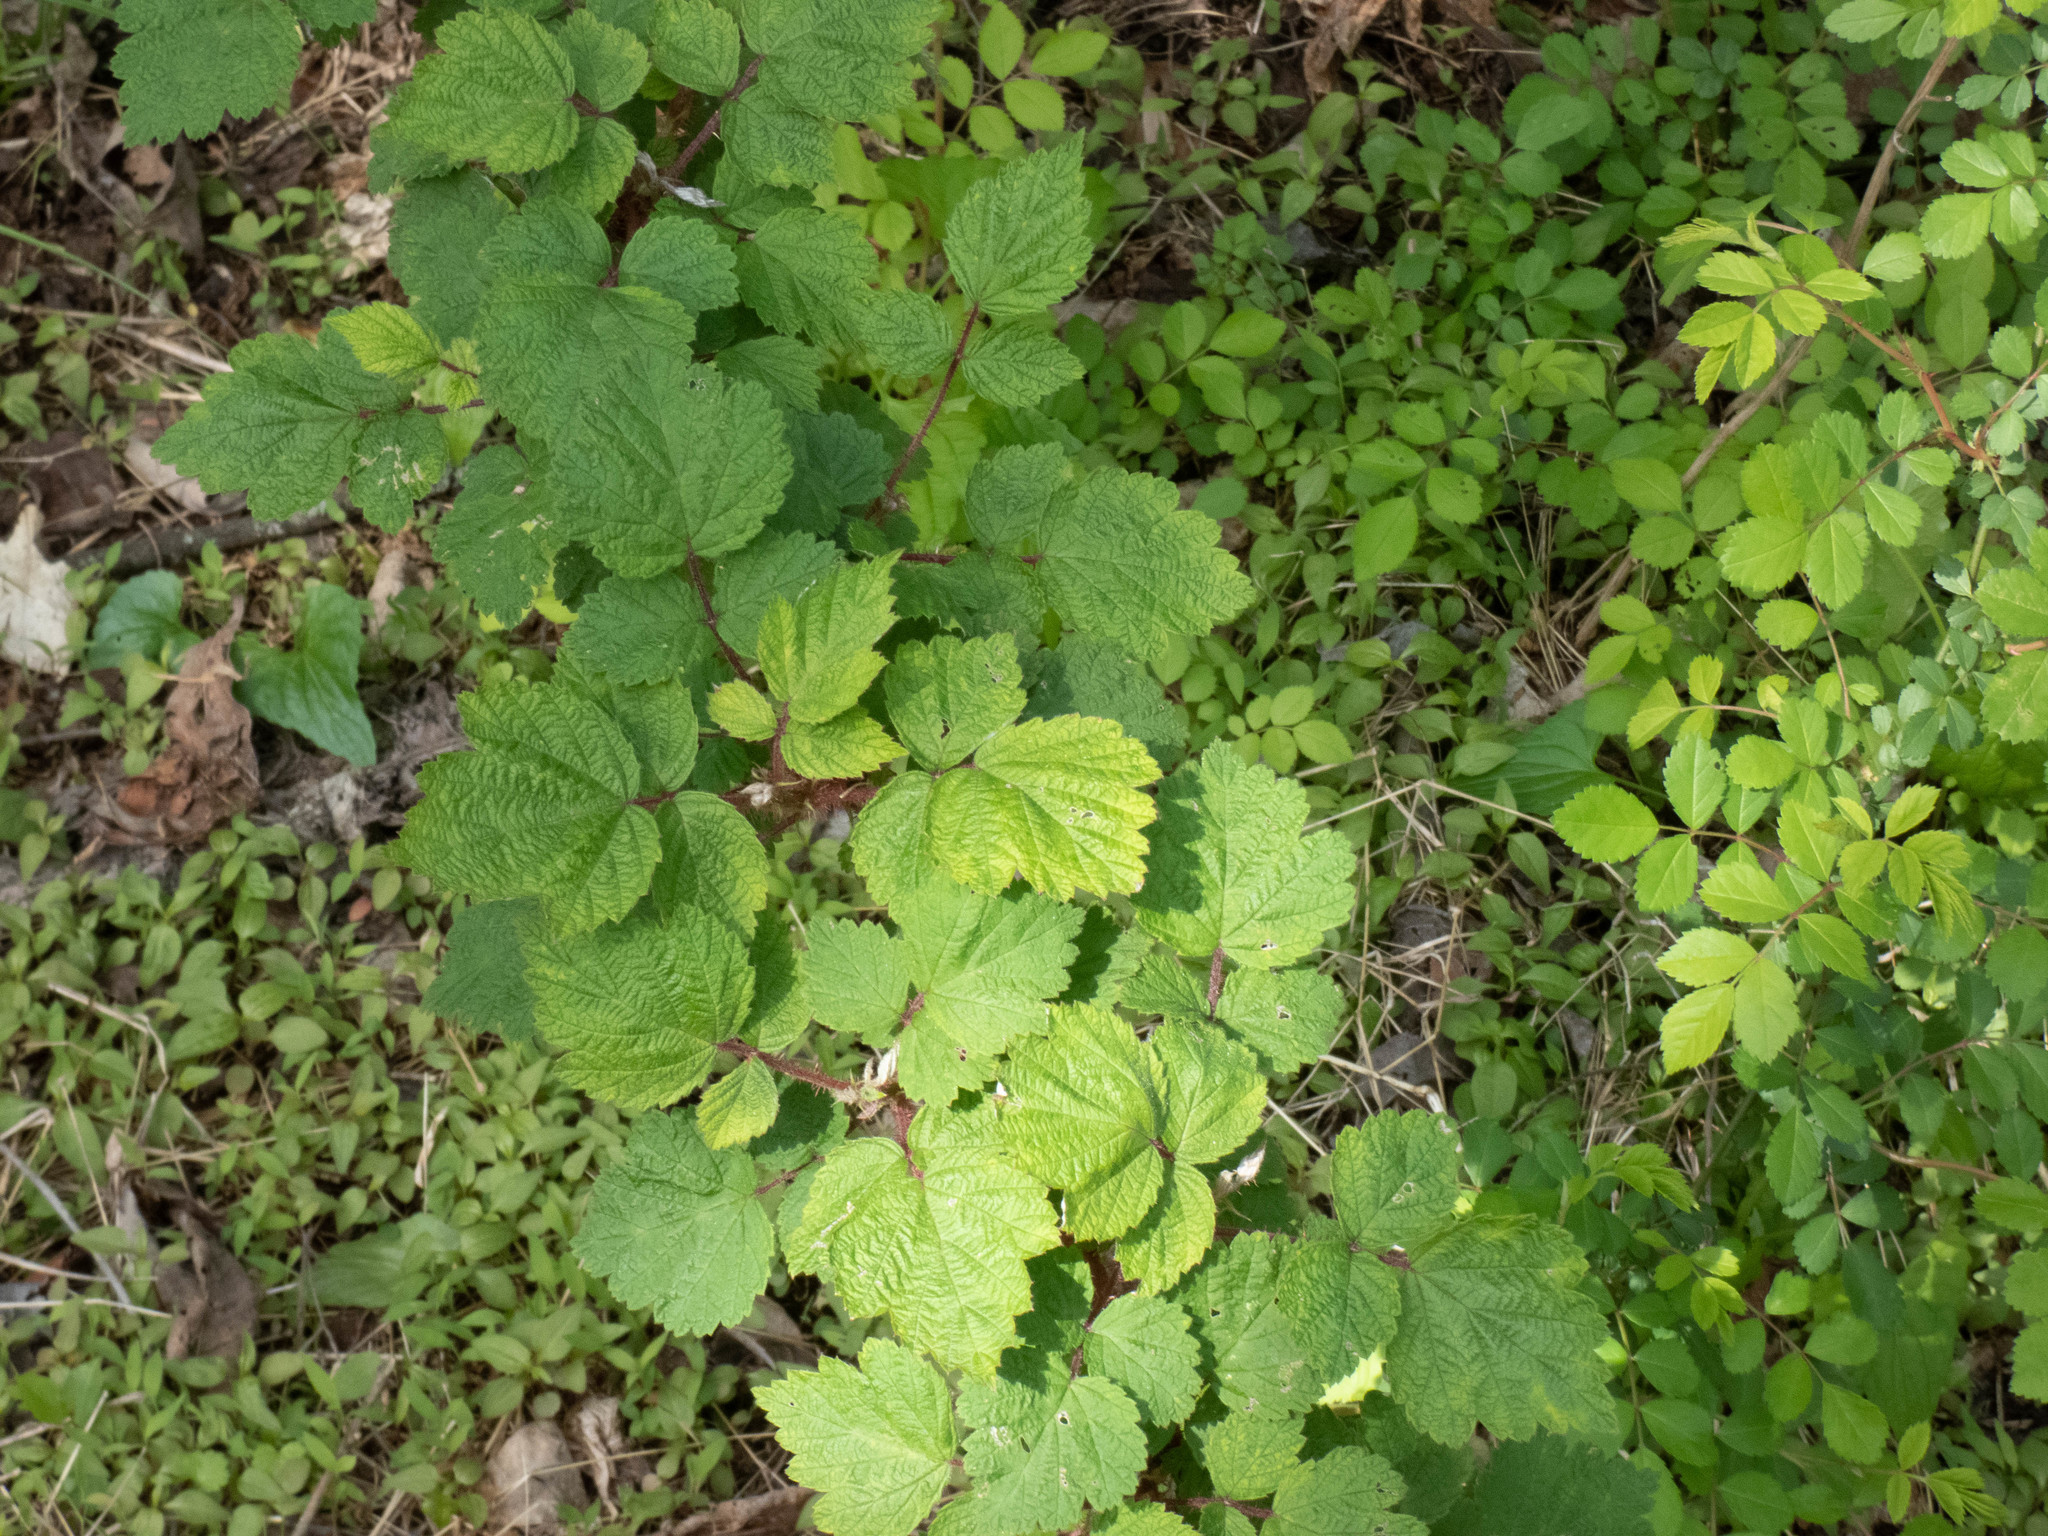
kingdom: Plantae
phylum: Tracheophyta
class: Magnoliopsida
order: Rosales
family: Rosaceae
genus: Rubus
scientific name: Rubus phoenicolasius
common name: Japanese wineberry
